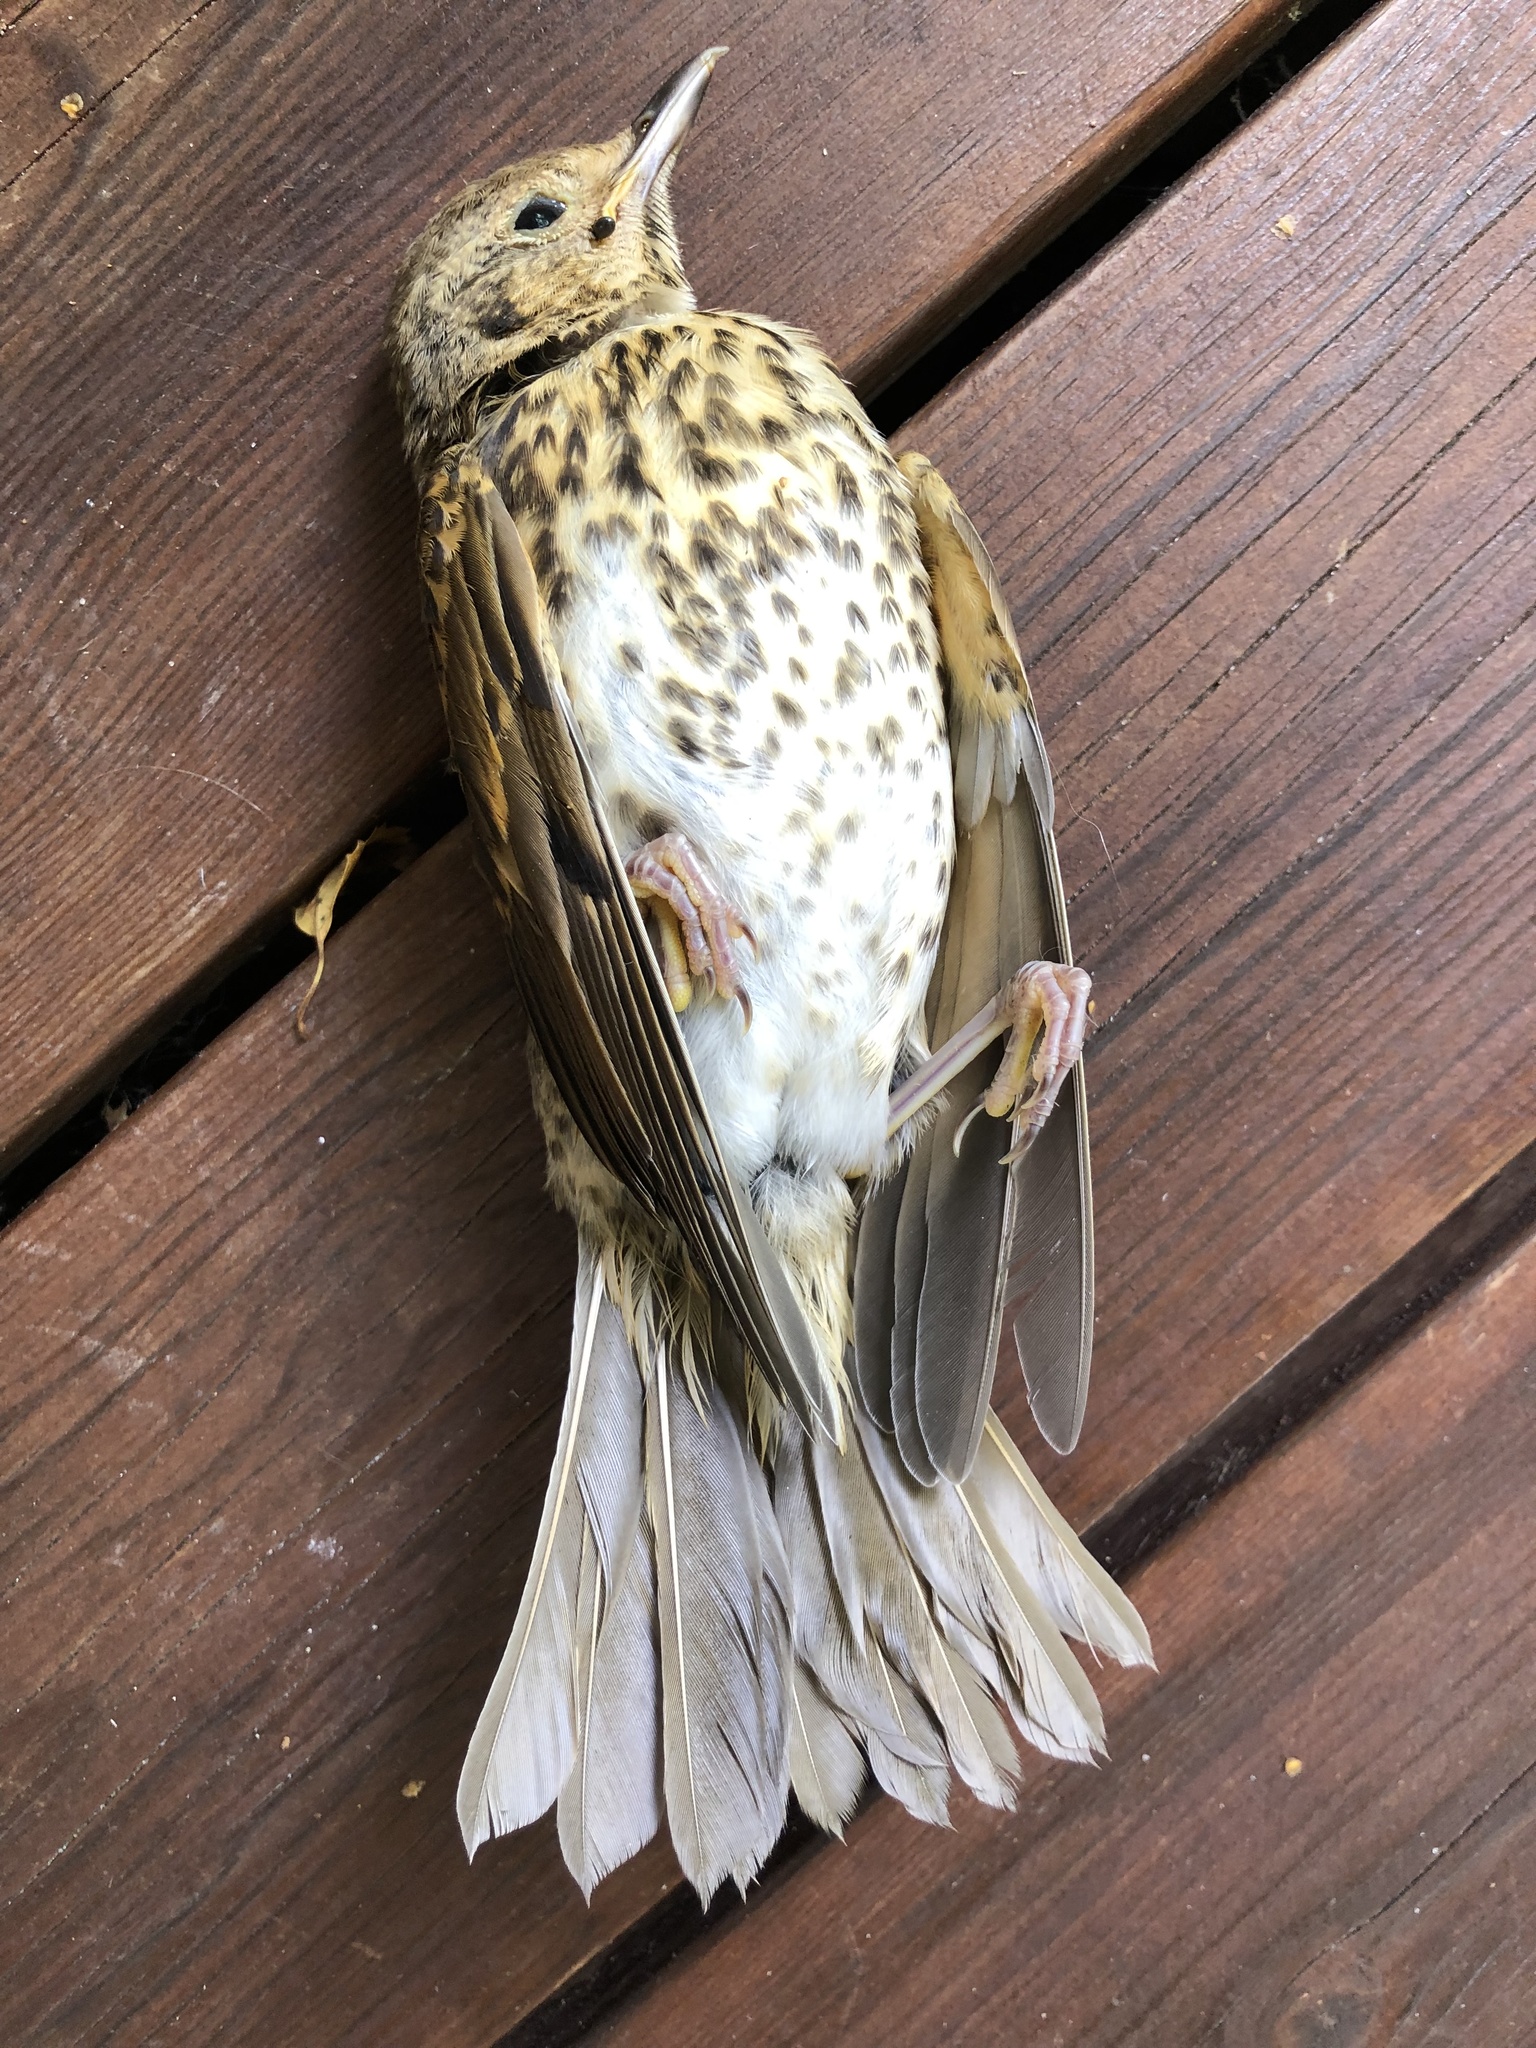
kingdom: Animalia
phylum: Chordata
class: Aves
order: Passeriformes
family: Turdidae
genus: Turdus
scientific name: Turdus philomelos
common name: Song thrush
